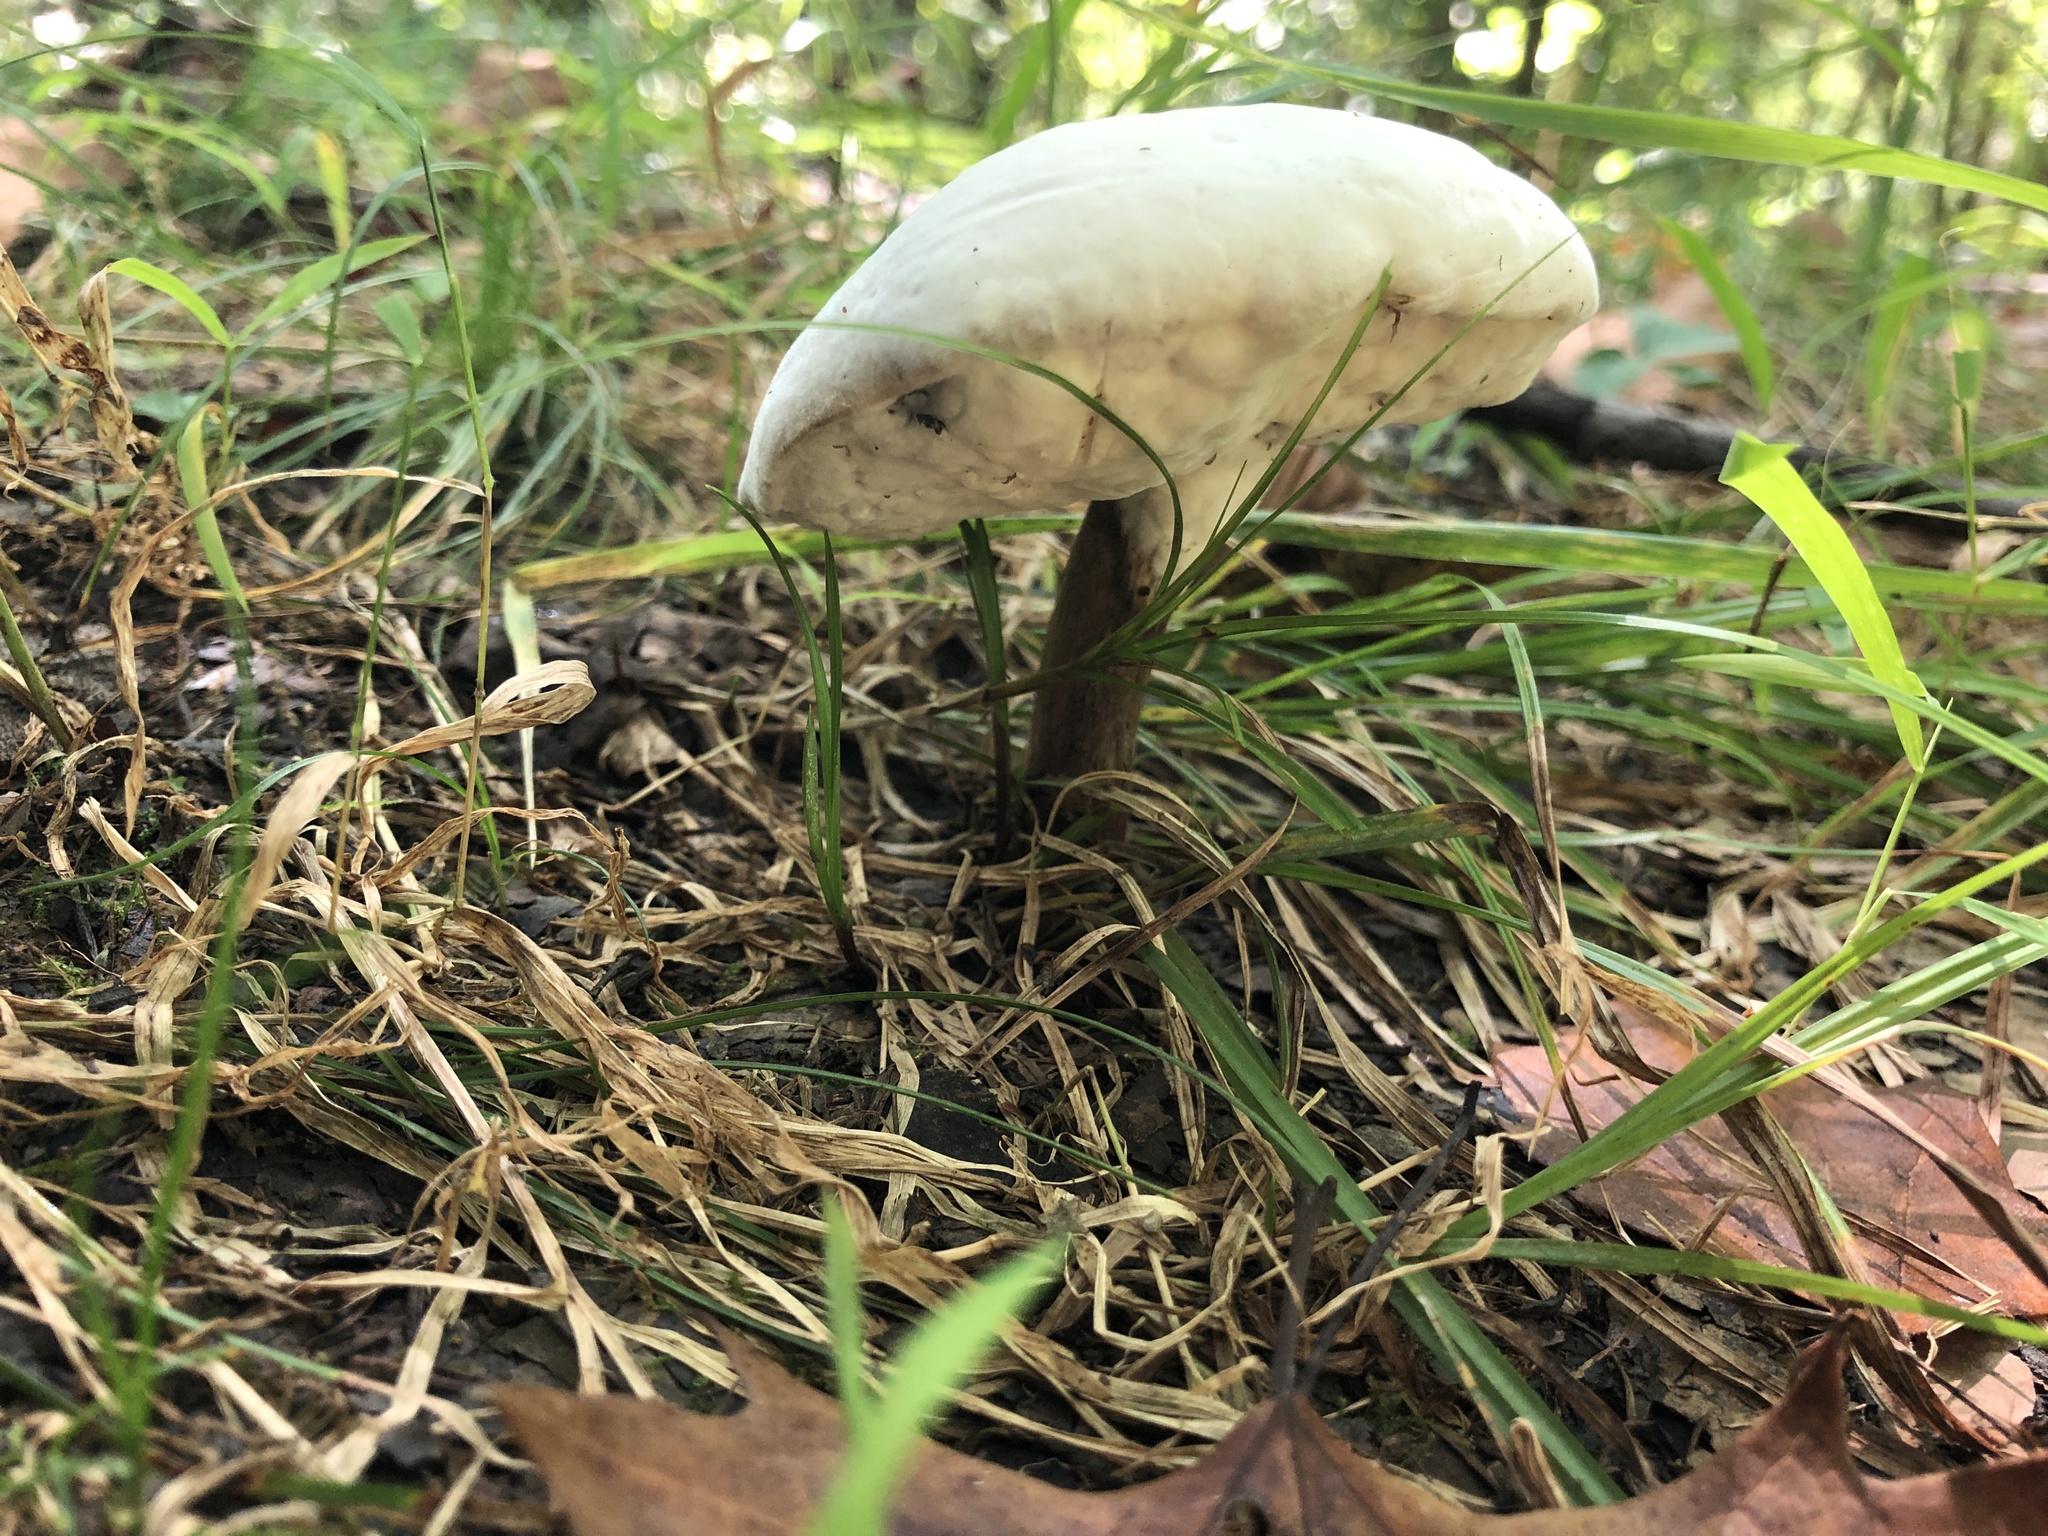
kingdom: Fungi
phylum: Ascomycota
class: Sordariomycetes
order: Hypocreales
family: Hypocreaceae
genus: Hypomyces
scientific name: Hypomyces chrysospermus
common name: Bolete mould
